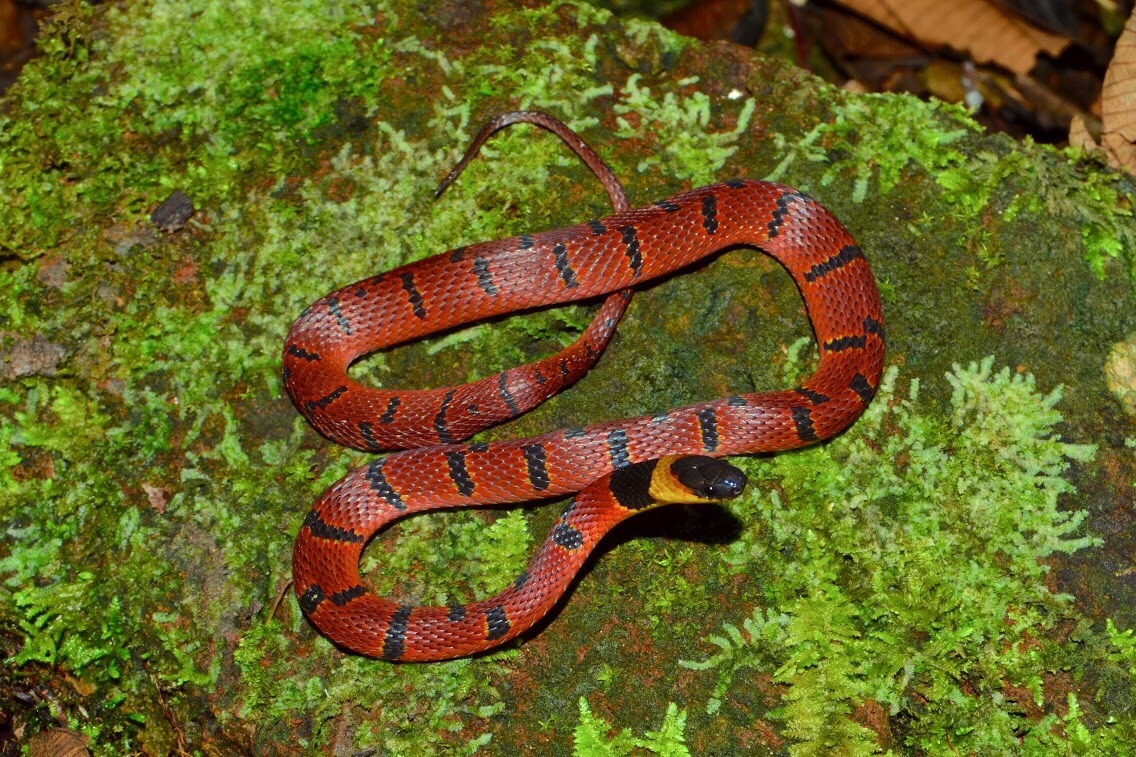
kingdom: Animalia
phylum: Chordata
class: Squamata
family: Colubridae
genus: Ninia
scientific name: Ninia sebae
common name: Redback coffee snake
